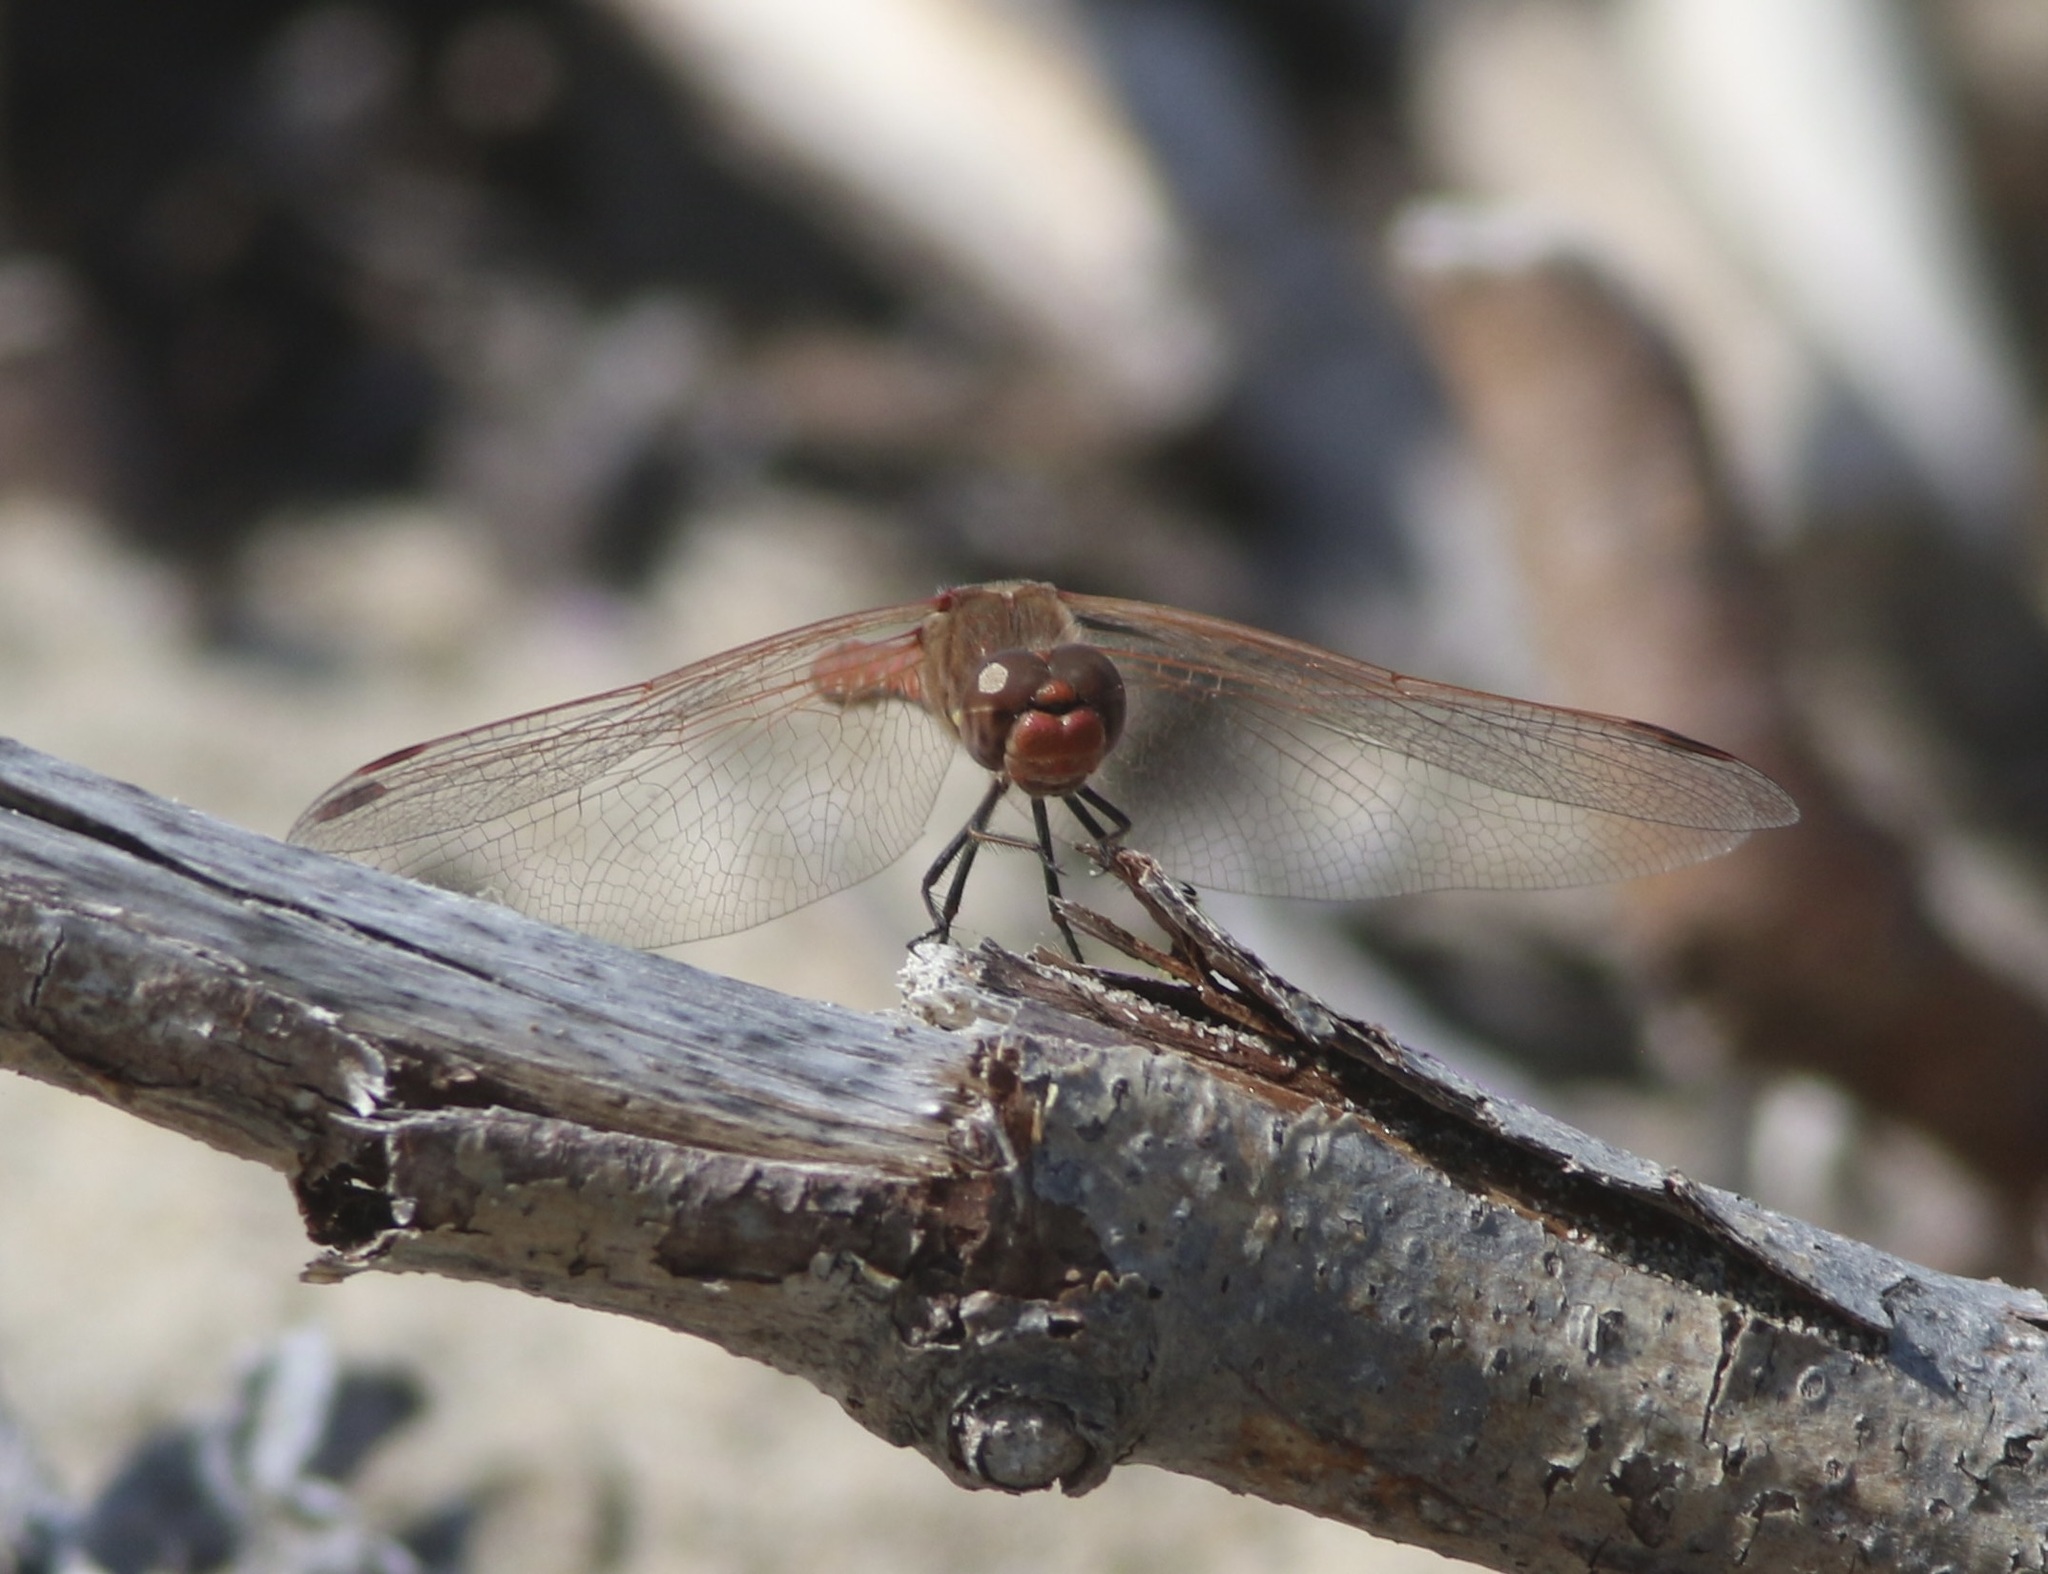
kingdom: Animalia
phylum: Arthropoda
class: Insecta
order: Odonata
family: Libellulidae
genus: Sympetrum
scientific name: Sympetrum corruptum
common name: Variegated meadowhawk
